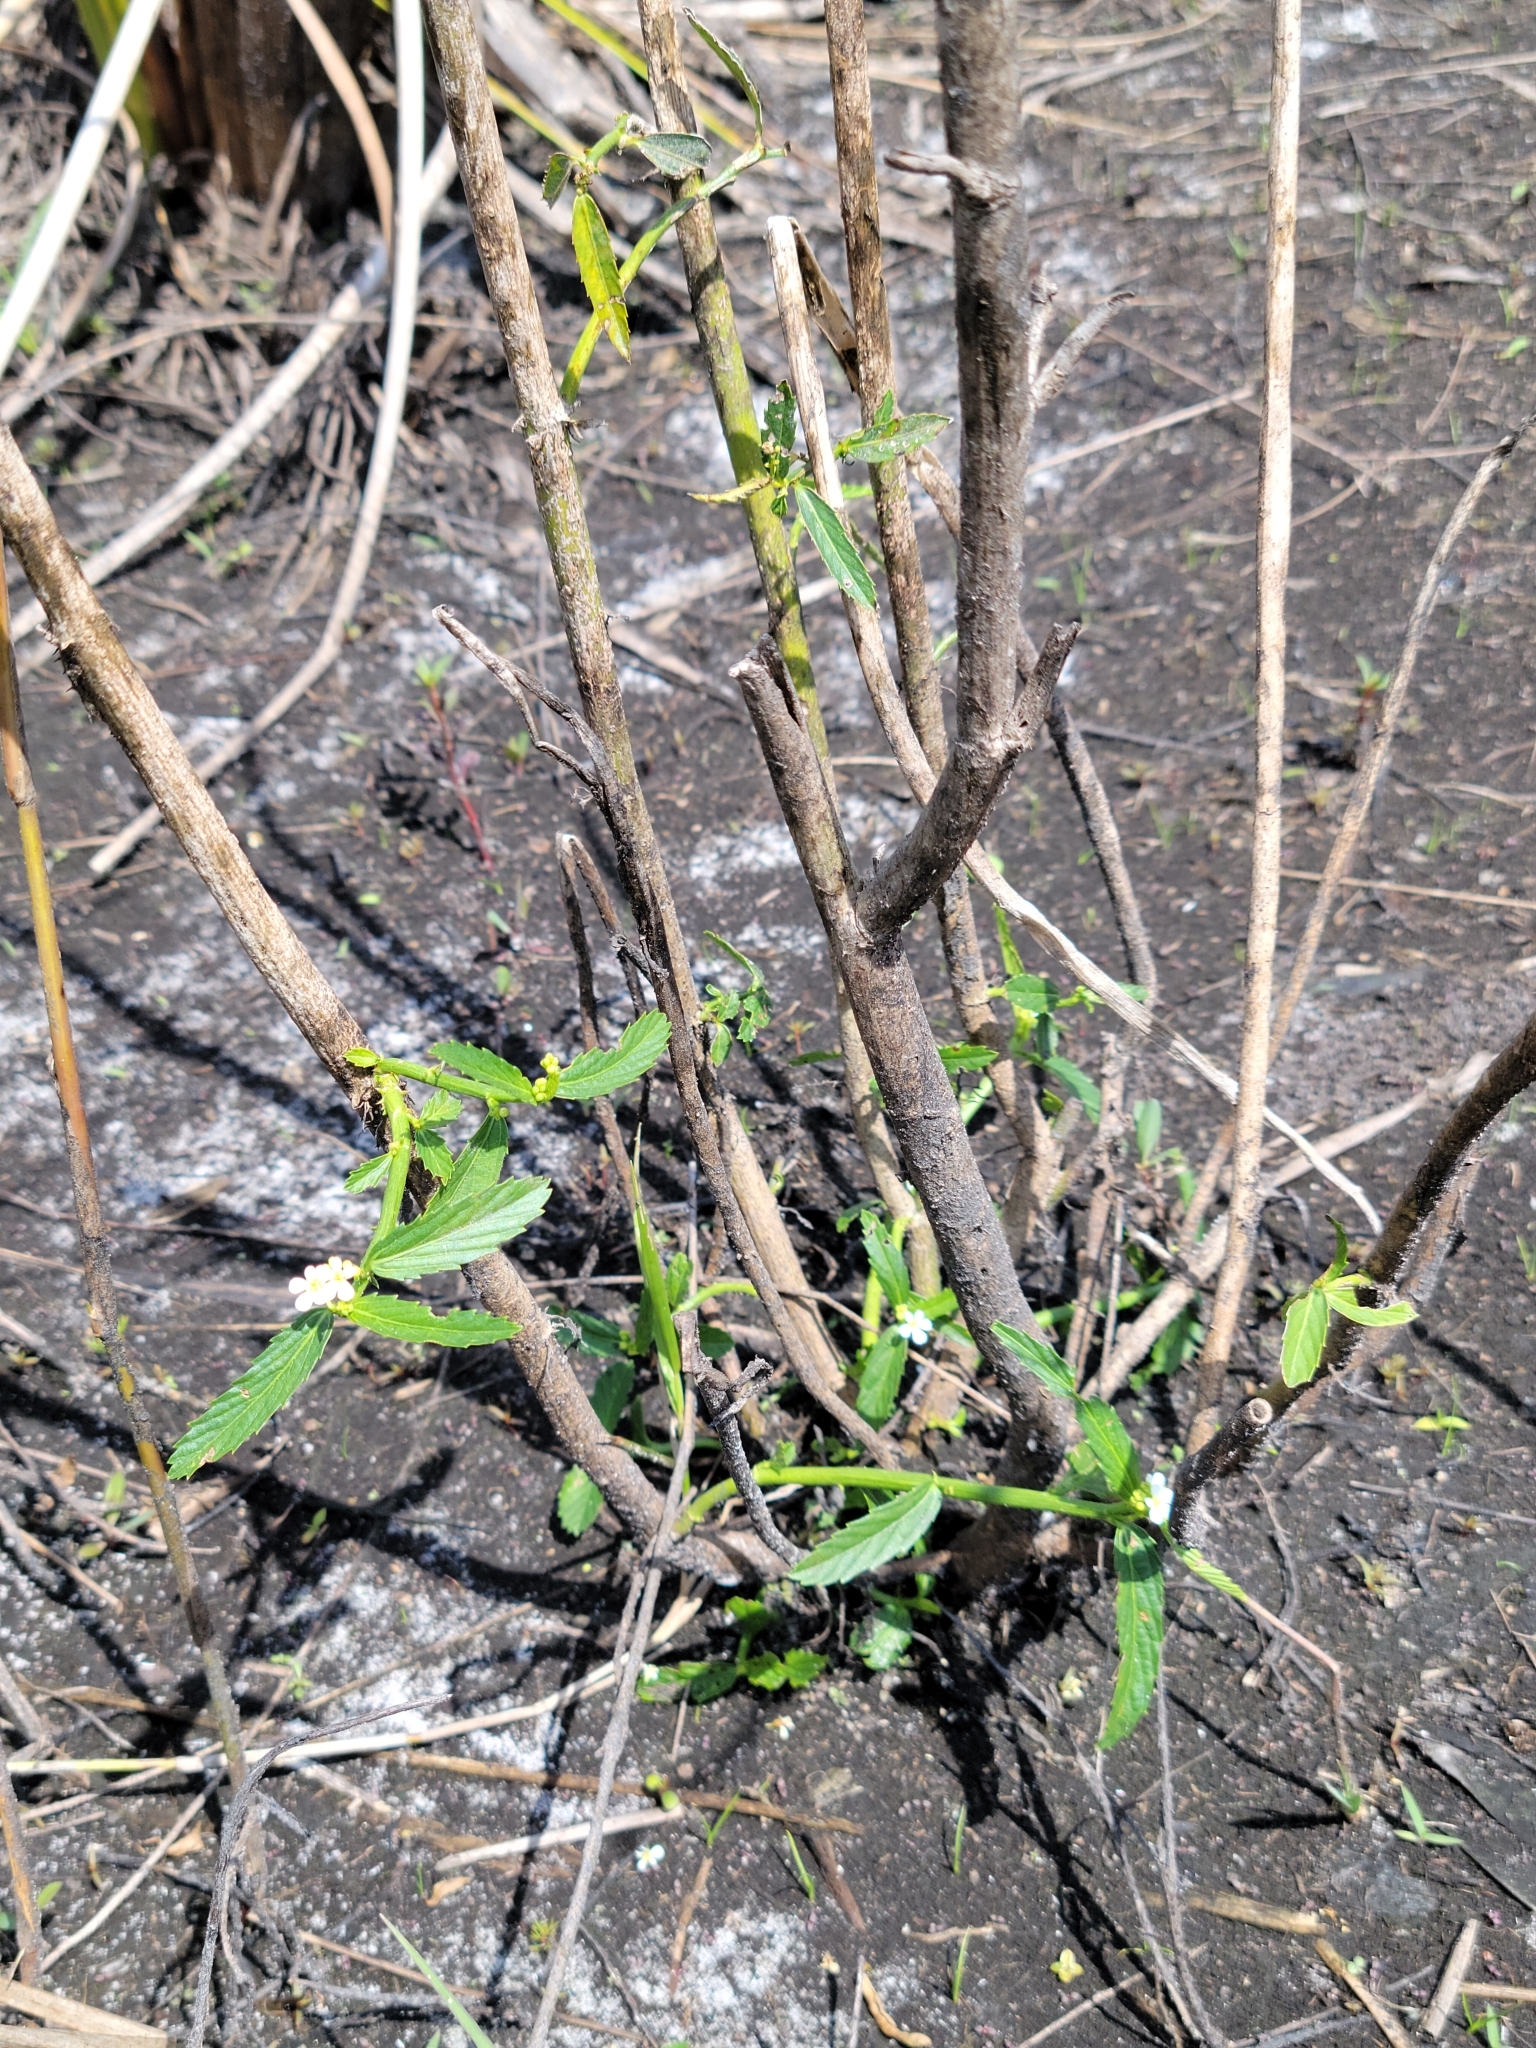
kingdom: Plantae
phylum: Tracheophyta
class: Magnoliopsida
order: Malpighiales
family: Euphorbiaceae
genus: Caperonia
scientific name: Caperonia castaneifolia
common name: Chestnutleaf false croton
